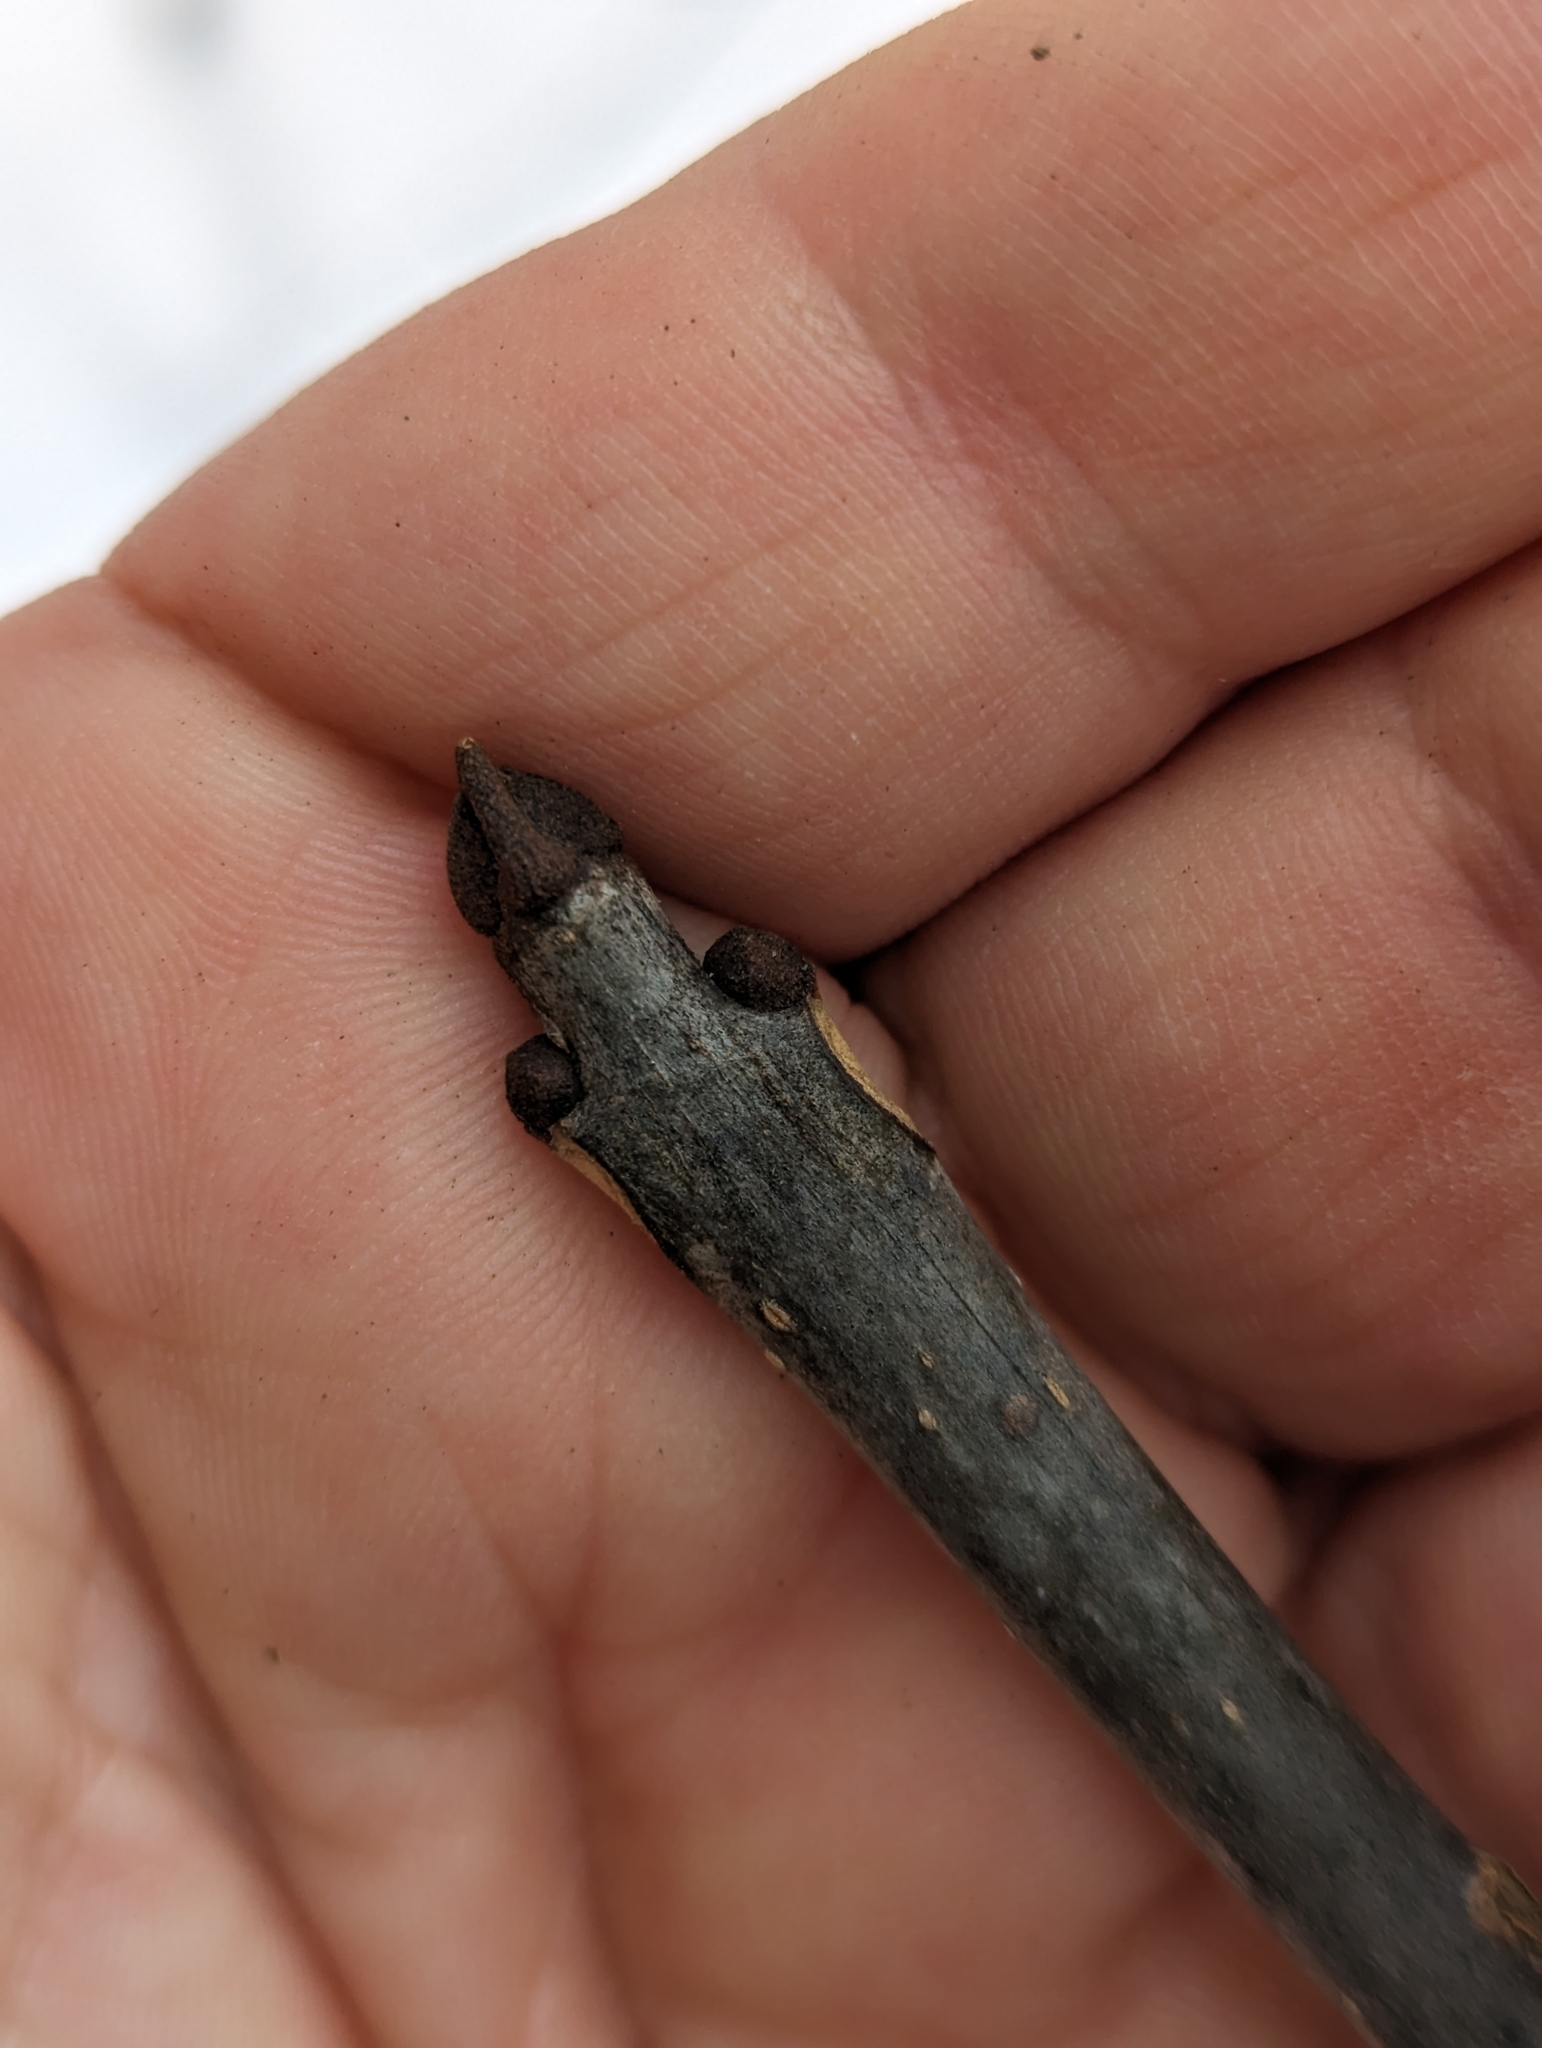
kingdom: Plantae
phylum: Tracheophyta
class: Magnoliopsida
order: Lamiales
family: Oleaceae
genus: Fraxinus
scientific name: Fraxinus nigra
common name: Black ash
